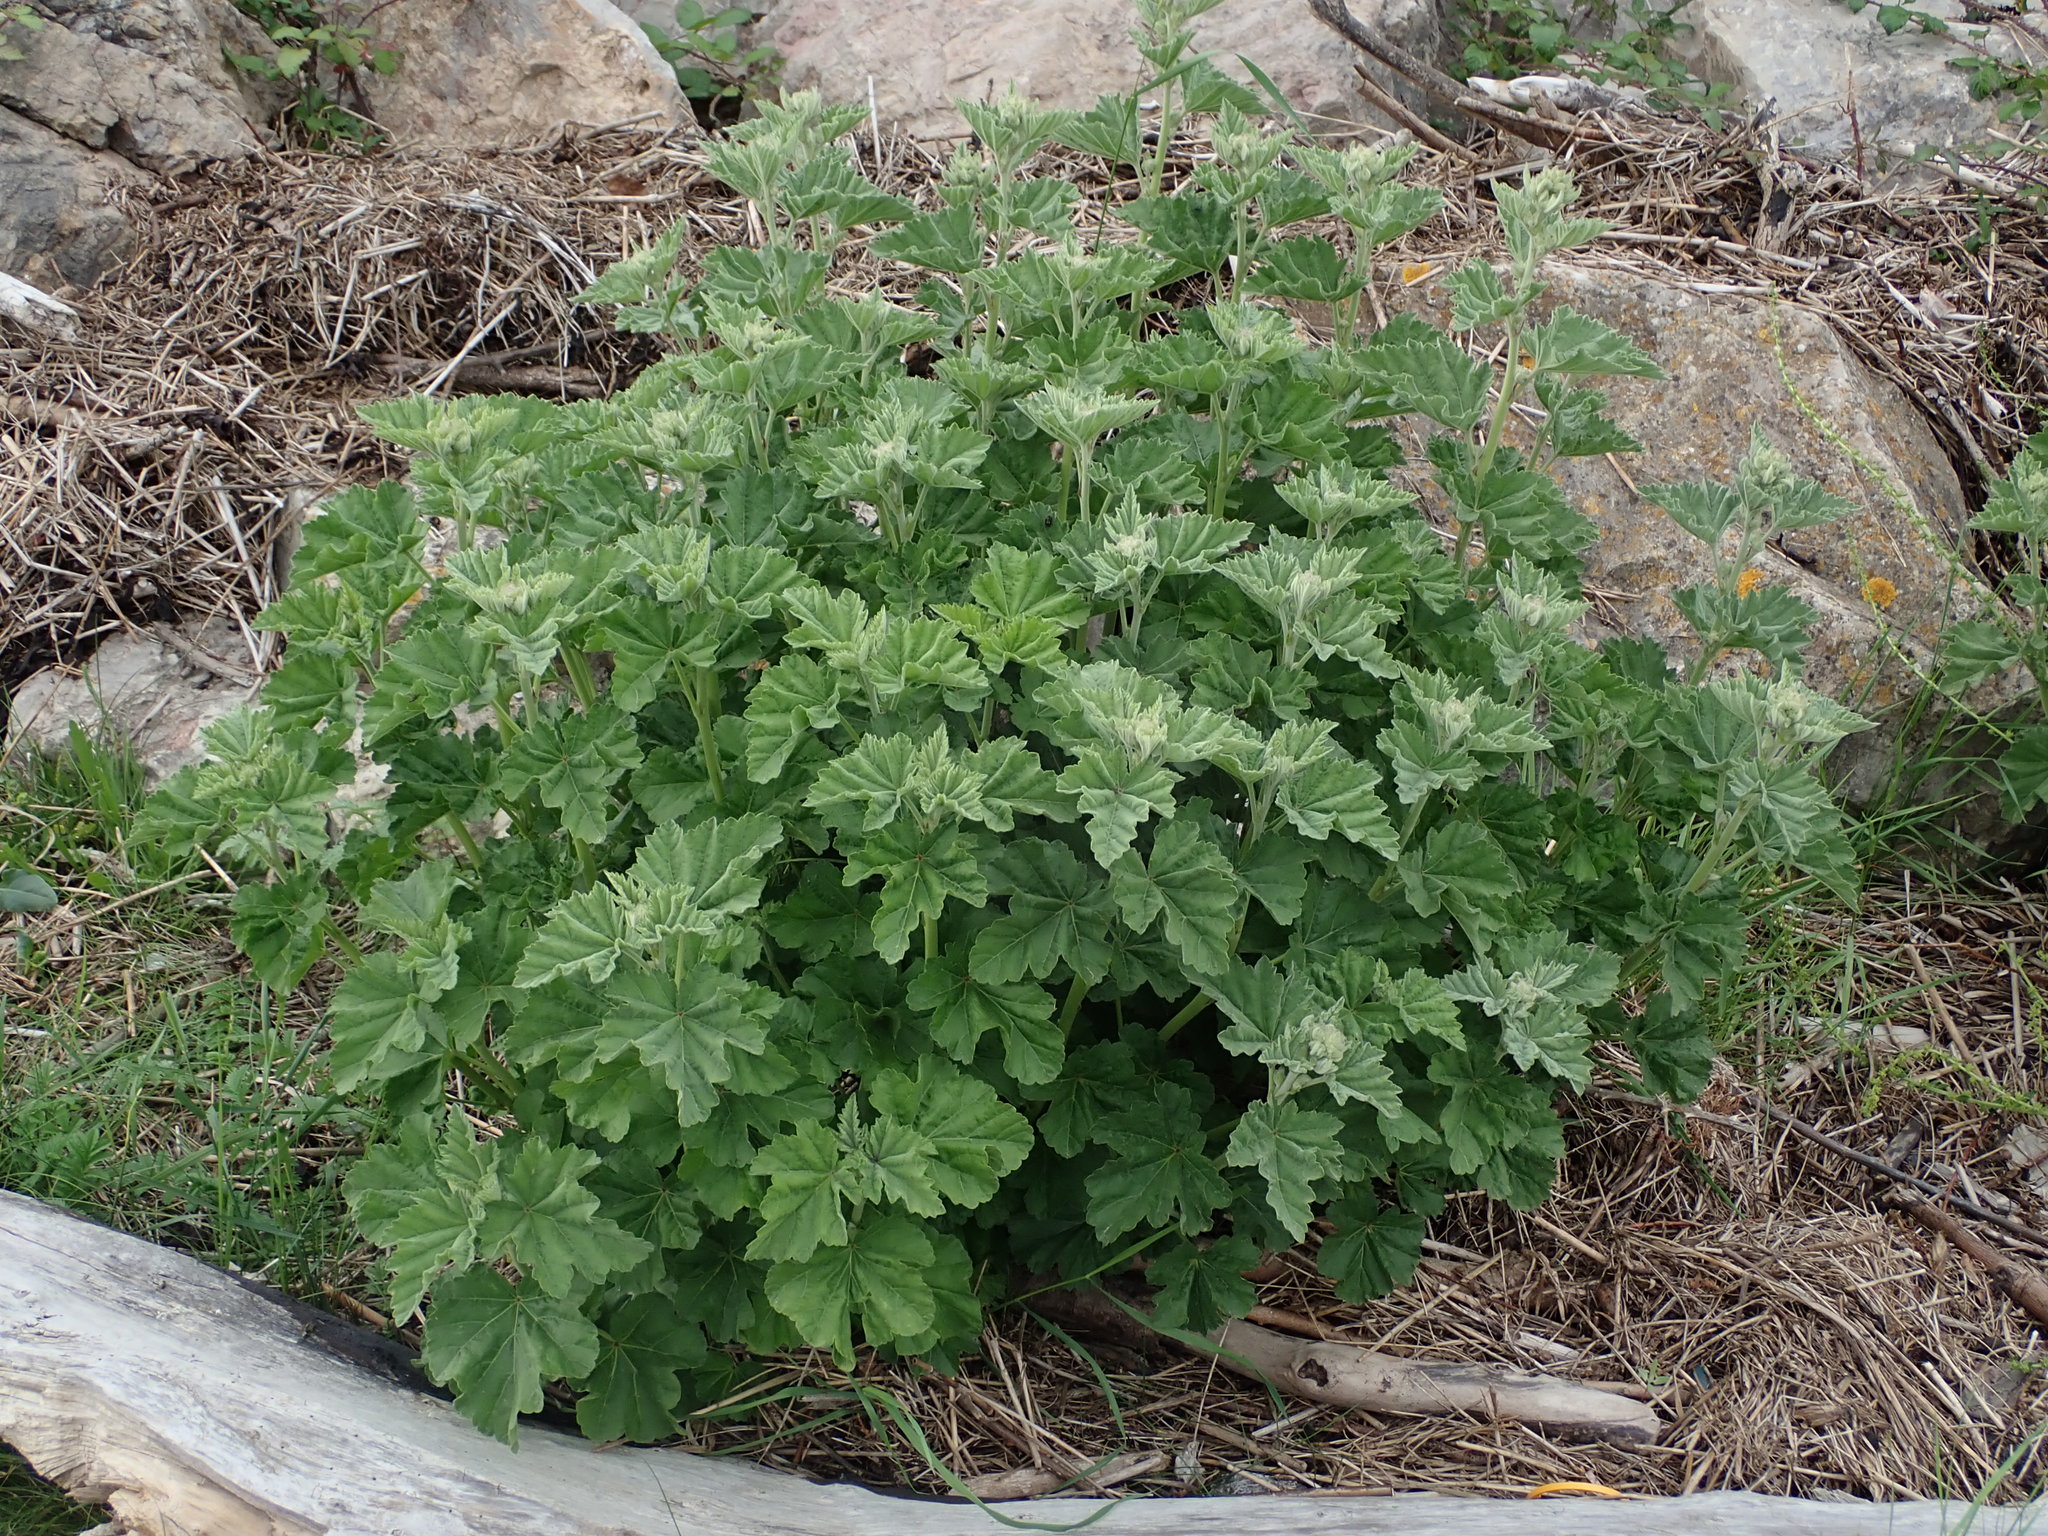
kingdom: Plantae
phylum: Tracheophyta
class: Magnoliopsida
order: Malvales
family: Malvaceae
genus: Althaea
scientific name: Althaea officinalis
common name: Marsh-mallow
